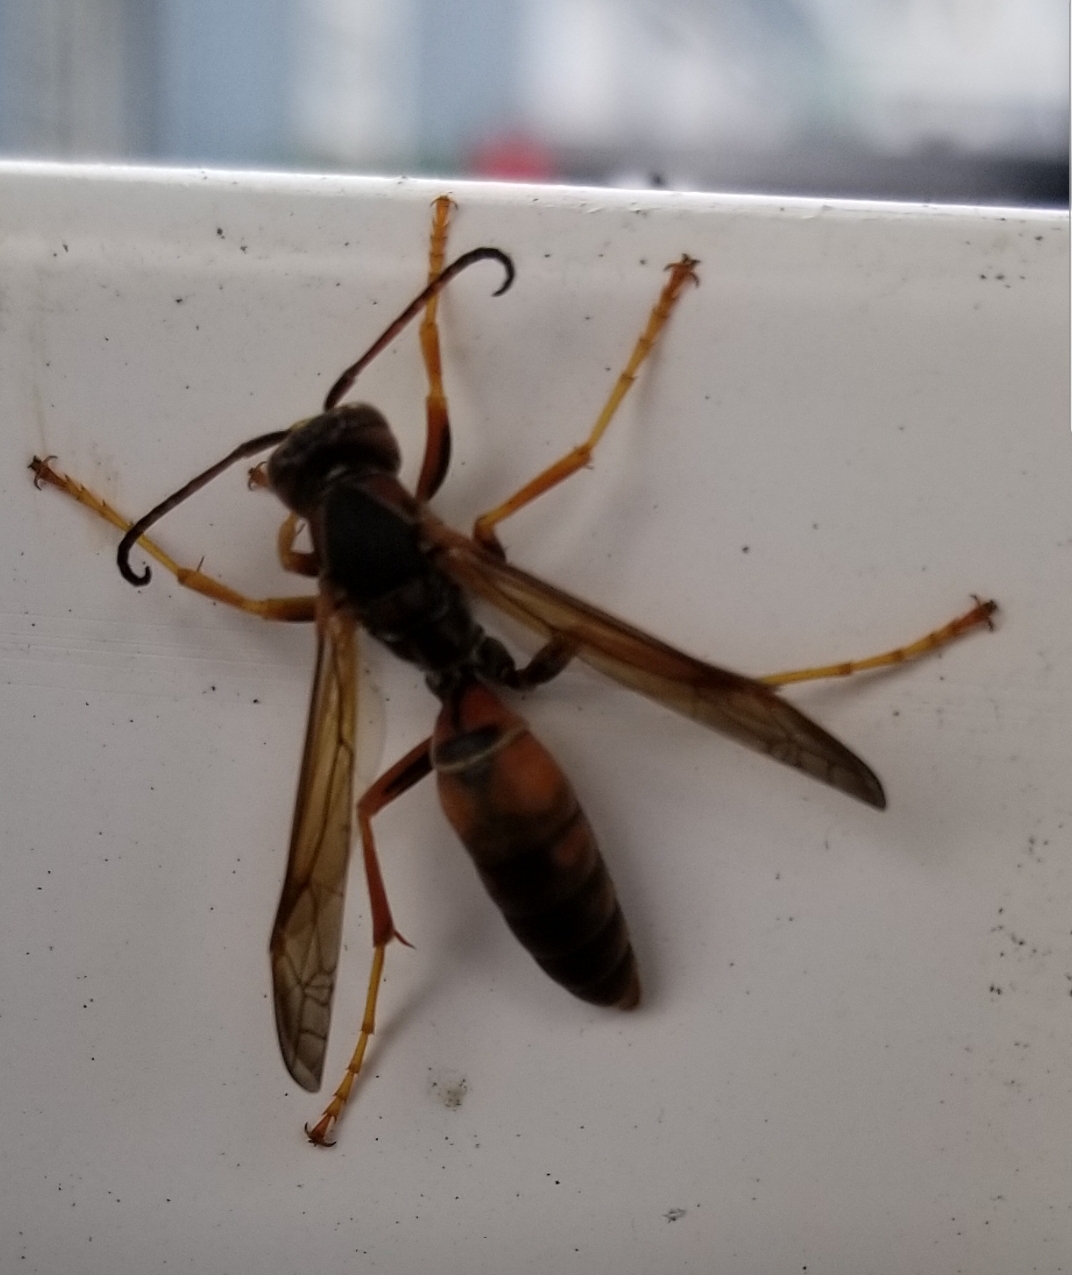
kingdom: Animalia
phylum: Arthropoda
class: Insecta
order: Hymenoptera
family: Eumenidae
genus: Polistes
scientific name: Polistes fuscatus
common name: Dark paper wasp
